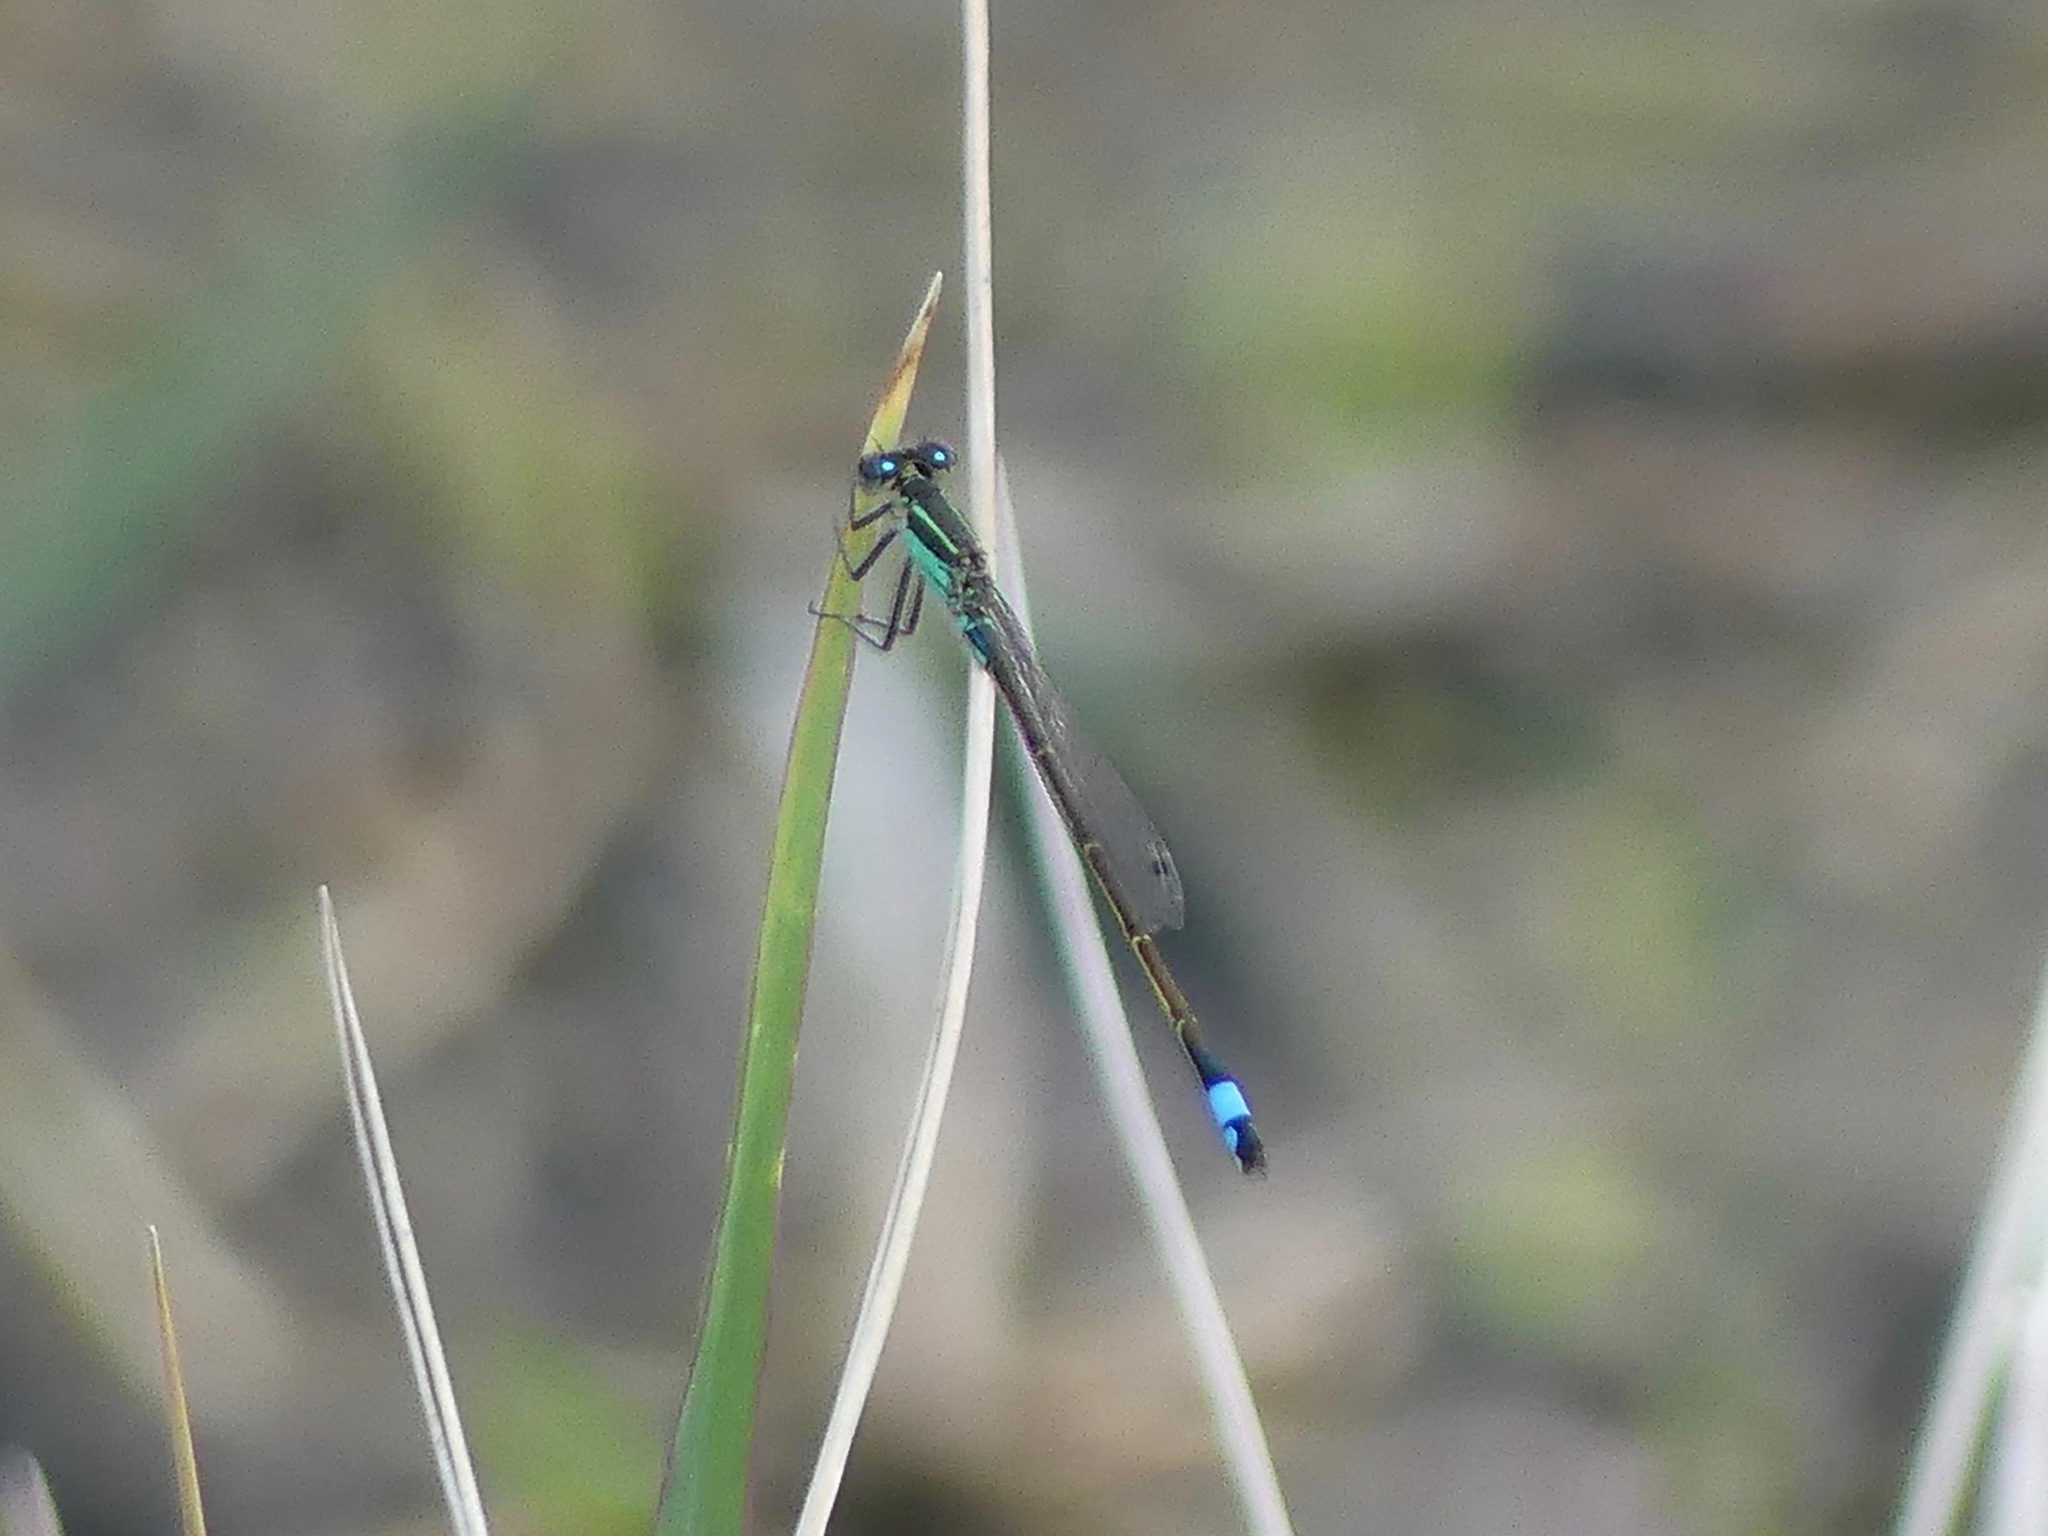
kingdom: Animalia
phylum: Arthropoda
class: Insecta
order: Odonata
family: Coenagrionidae
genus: Ischnura
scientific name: Ischnura ramburii
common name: Rambur's forktail
